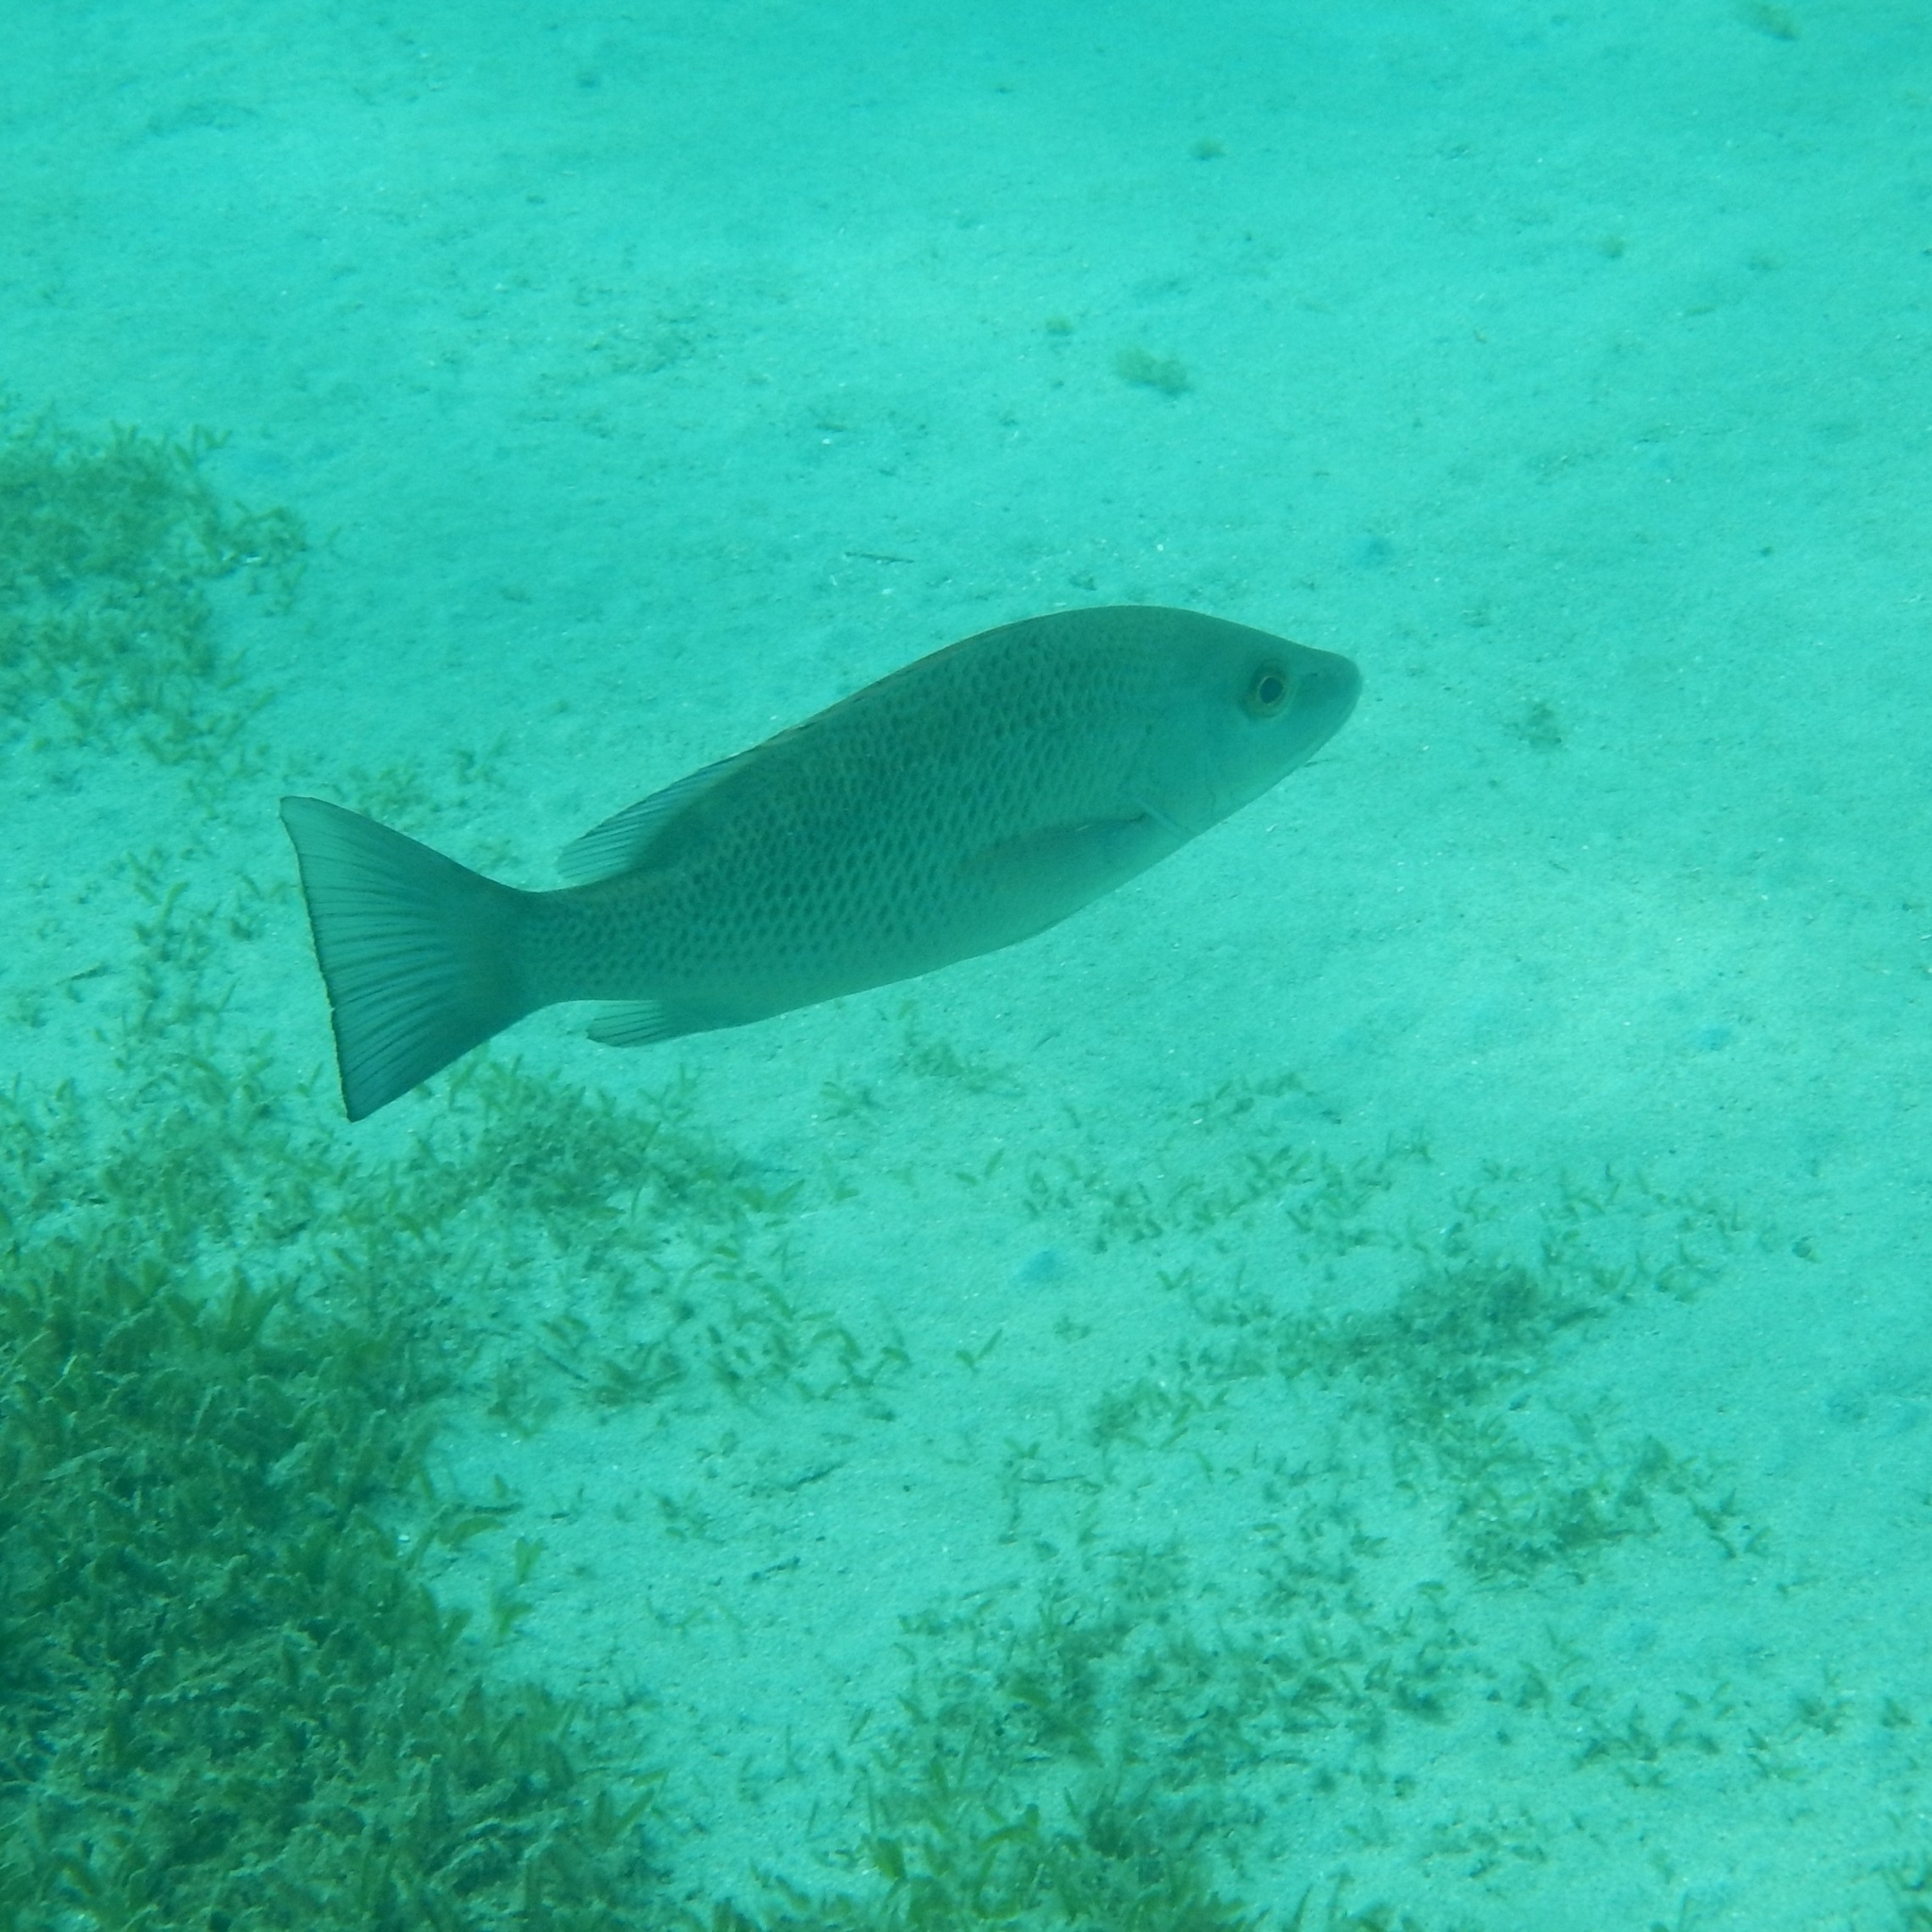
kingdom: Animalia
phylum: Chordata
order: Perciformes
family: Lutjanidae
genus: Lutjanus
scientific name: Lutjanus griseus
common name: Gray snapper
